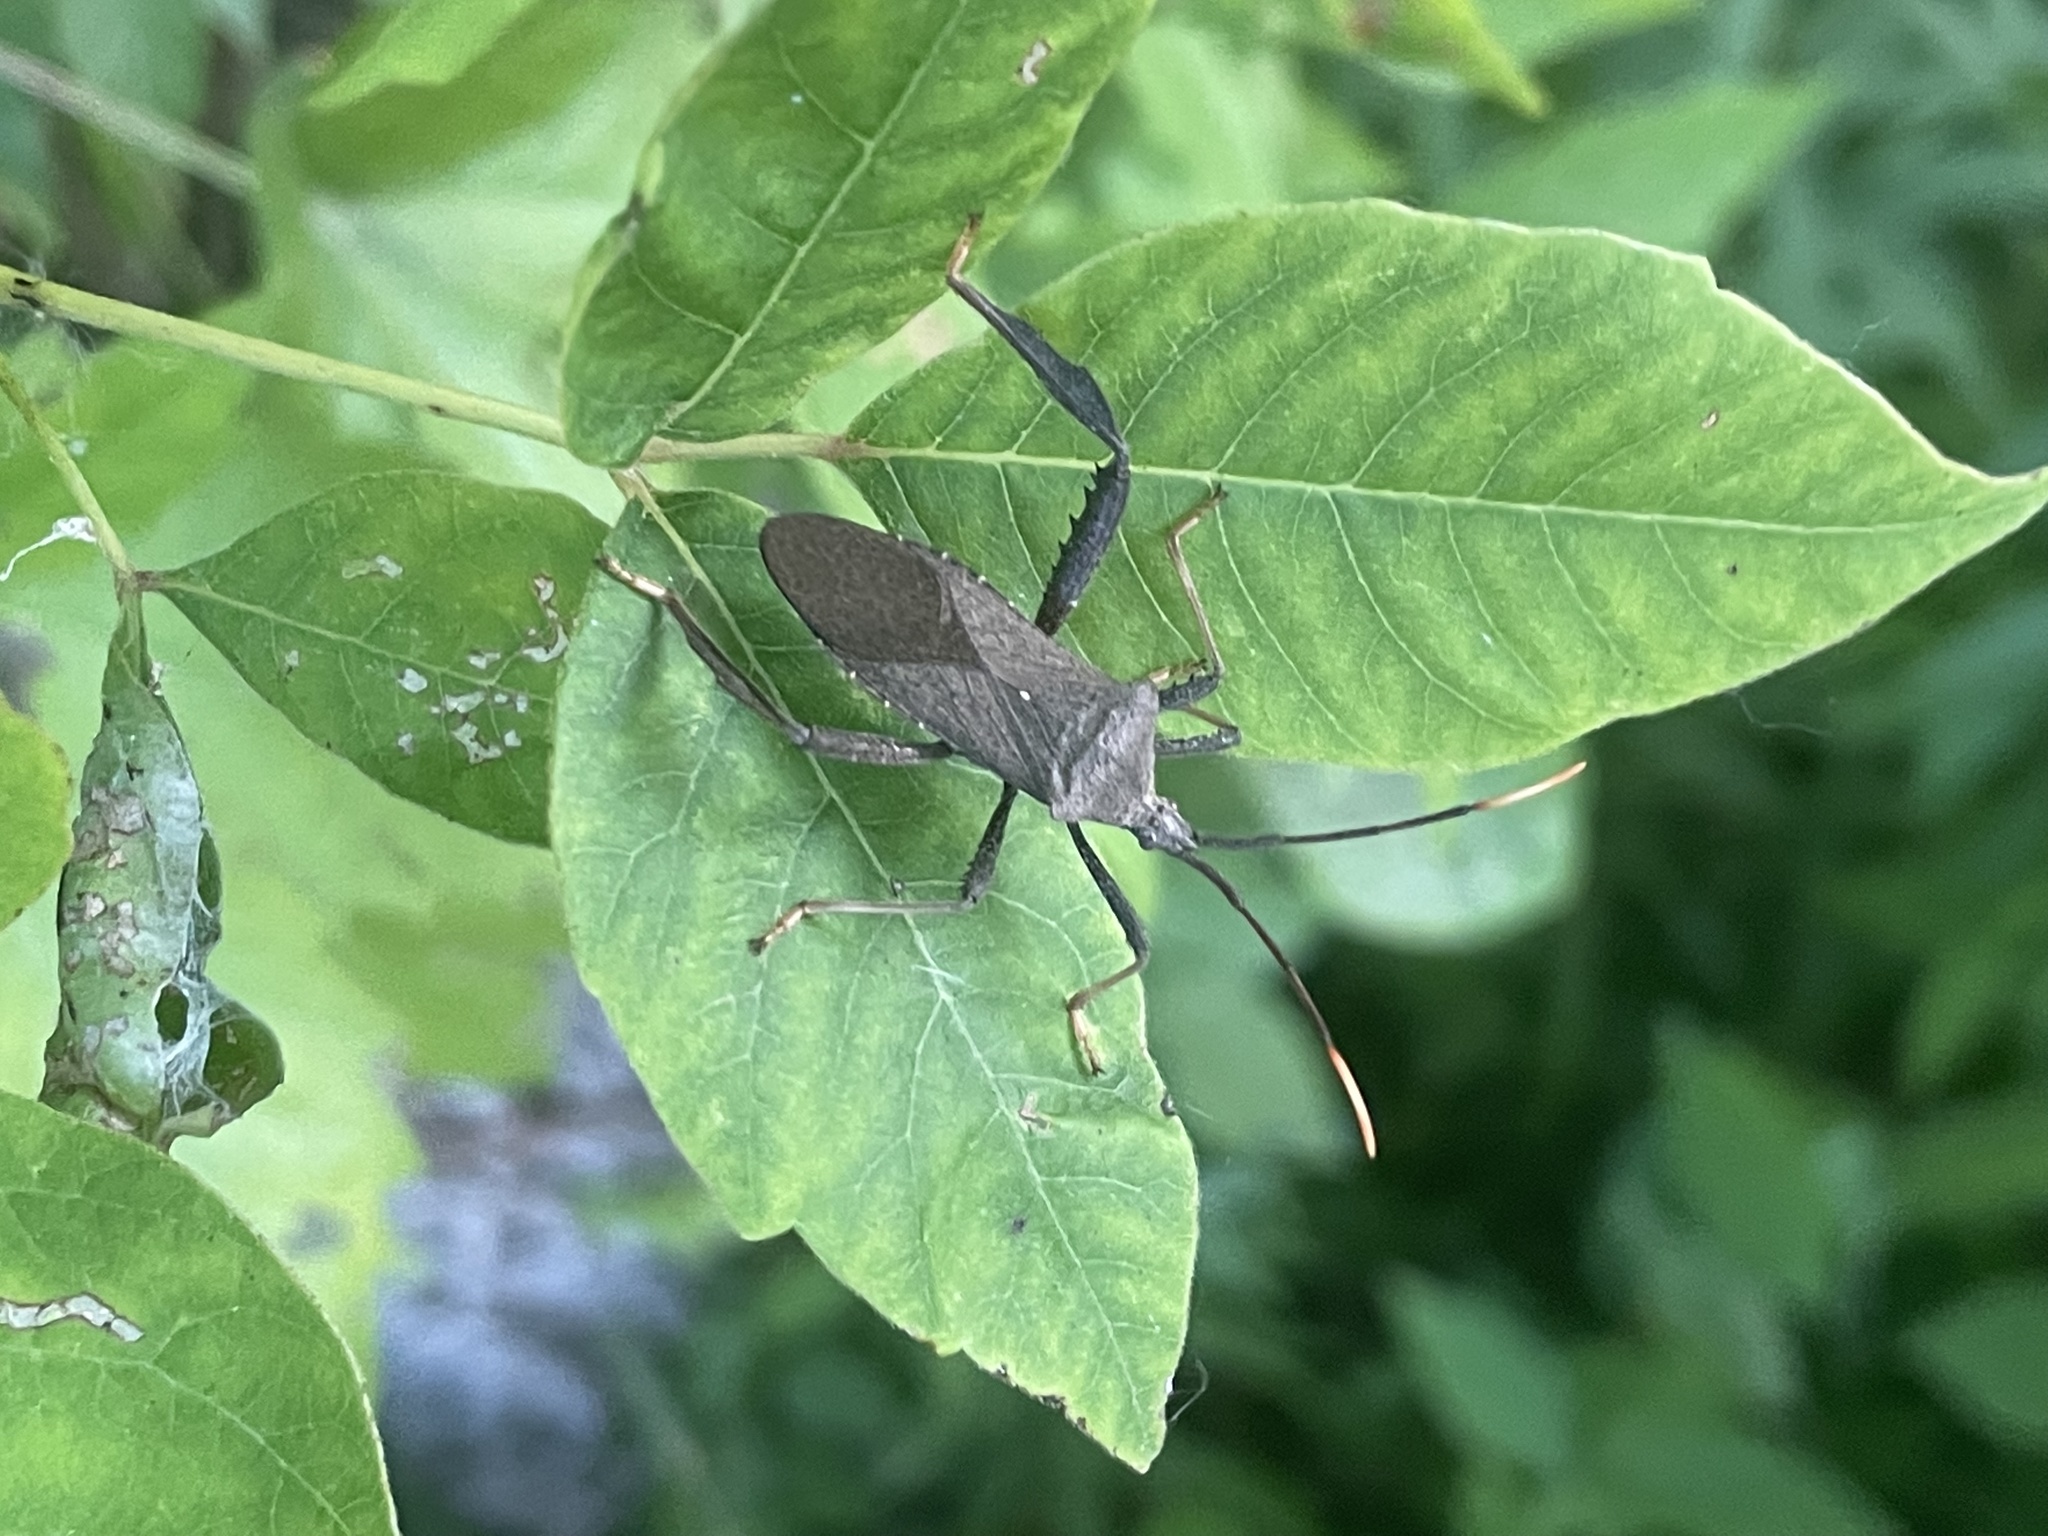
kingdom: Animalia
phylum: Arthropoda
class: Insecta
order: Hemiptera
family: Coreidae
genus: Acanthocephala
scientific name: Acanthocephala terminalis
